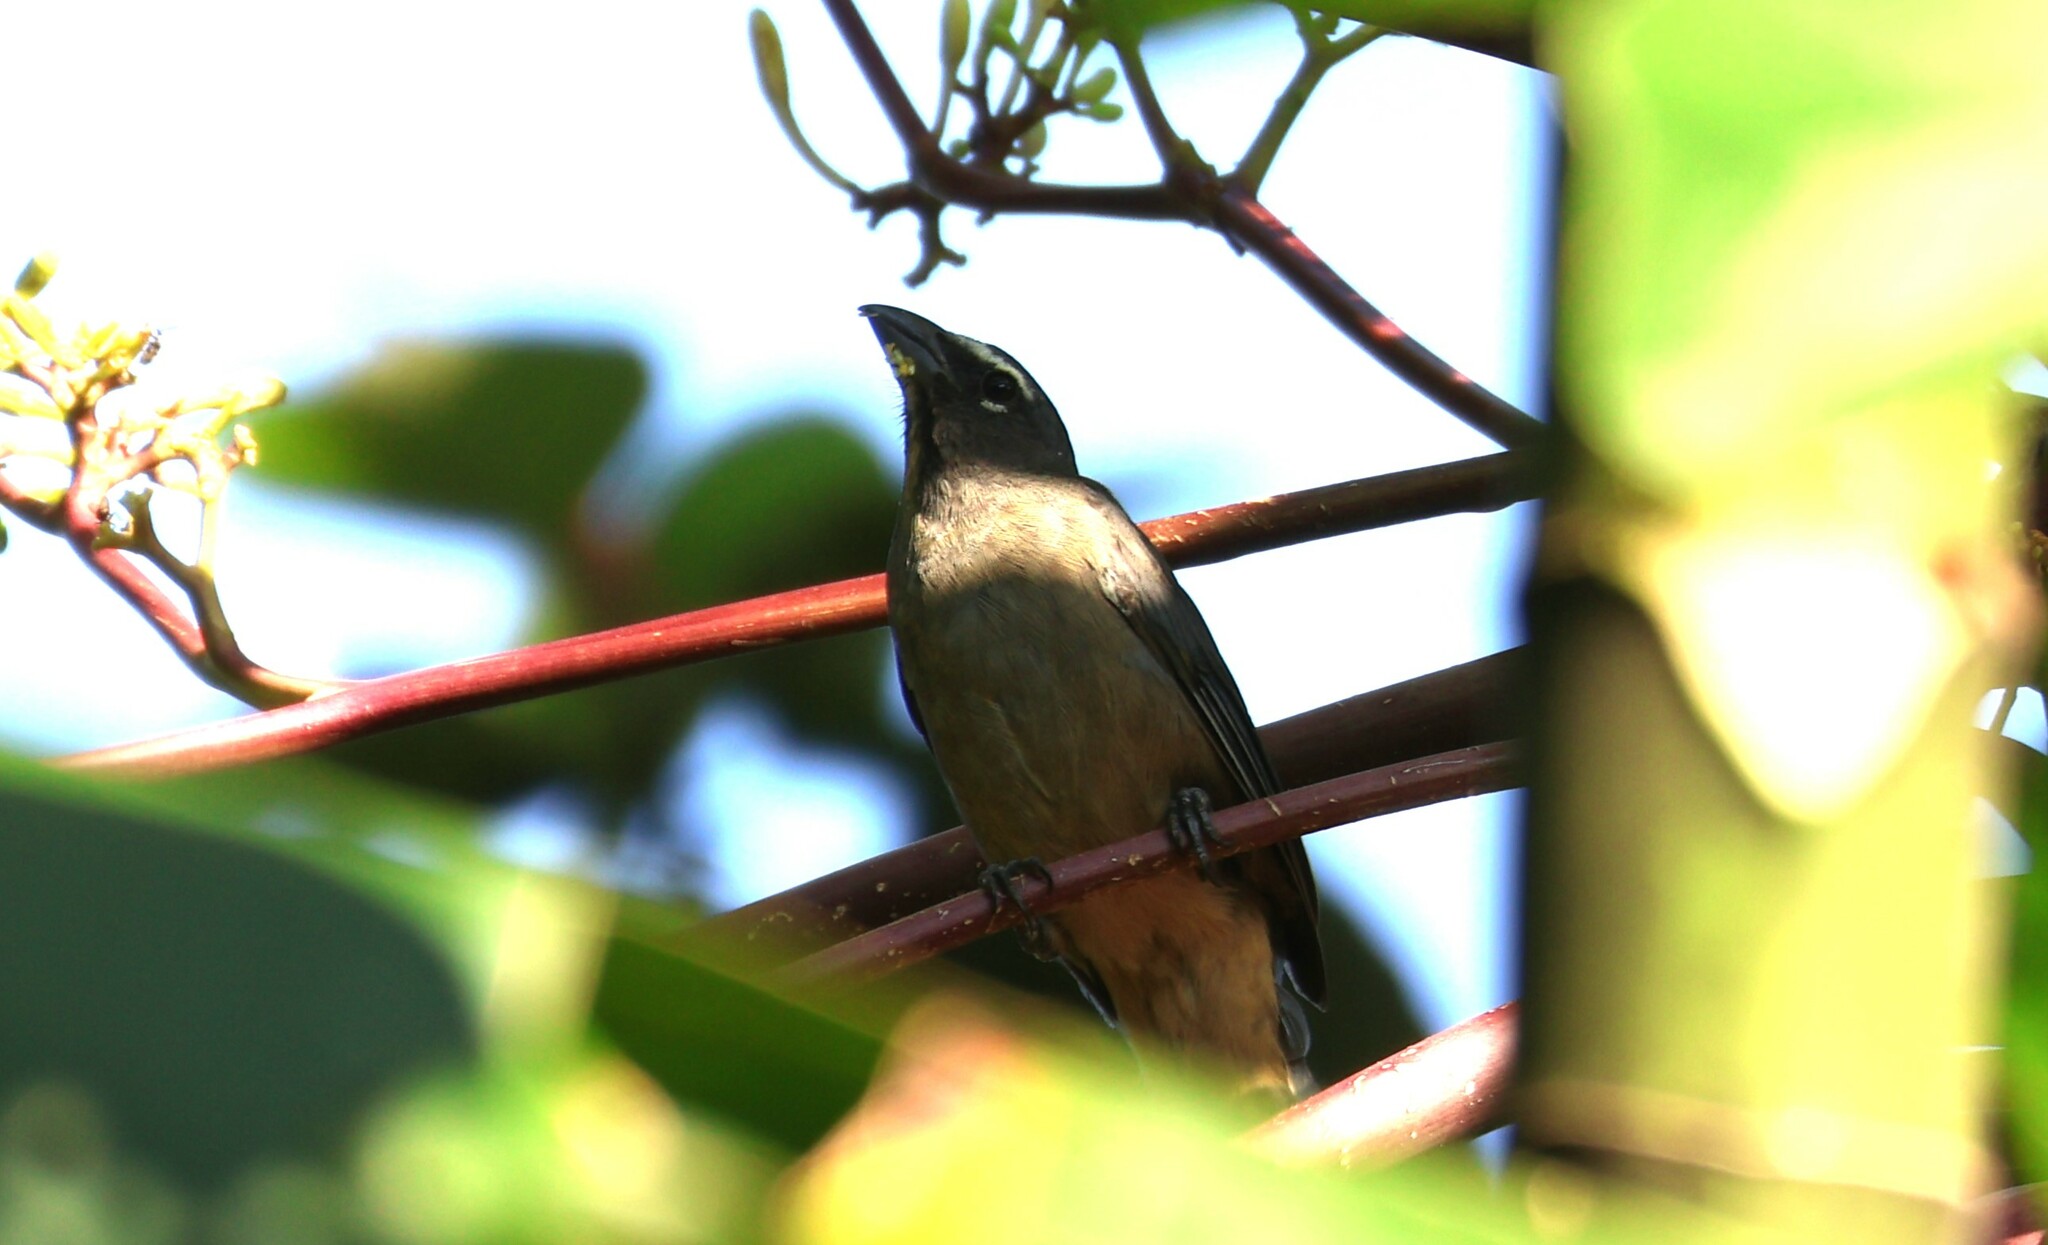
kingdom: Animalia
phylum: Chordata
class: Aves
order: Passeriformes
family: Thraupidae
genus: Saltator
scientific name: Saltator grandis
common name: Cinnamon-bellied saltator
